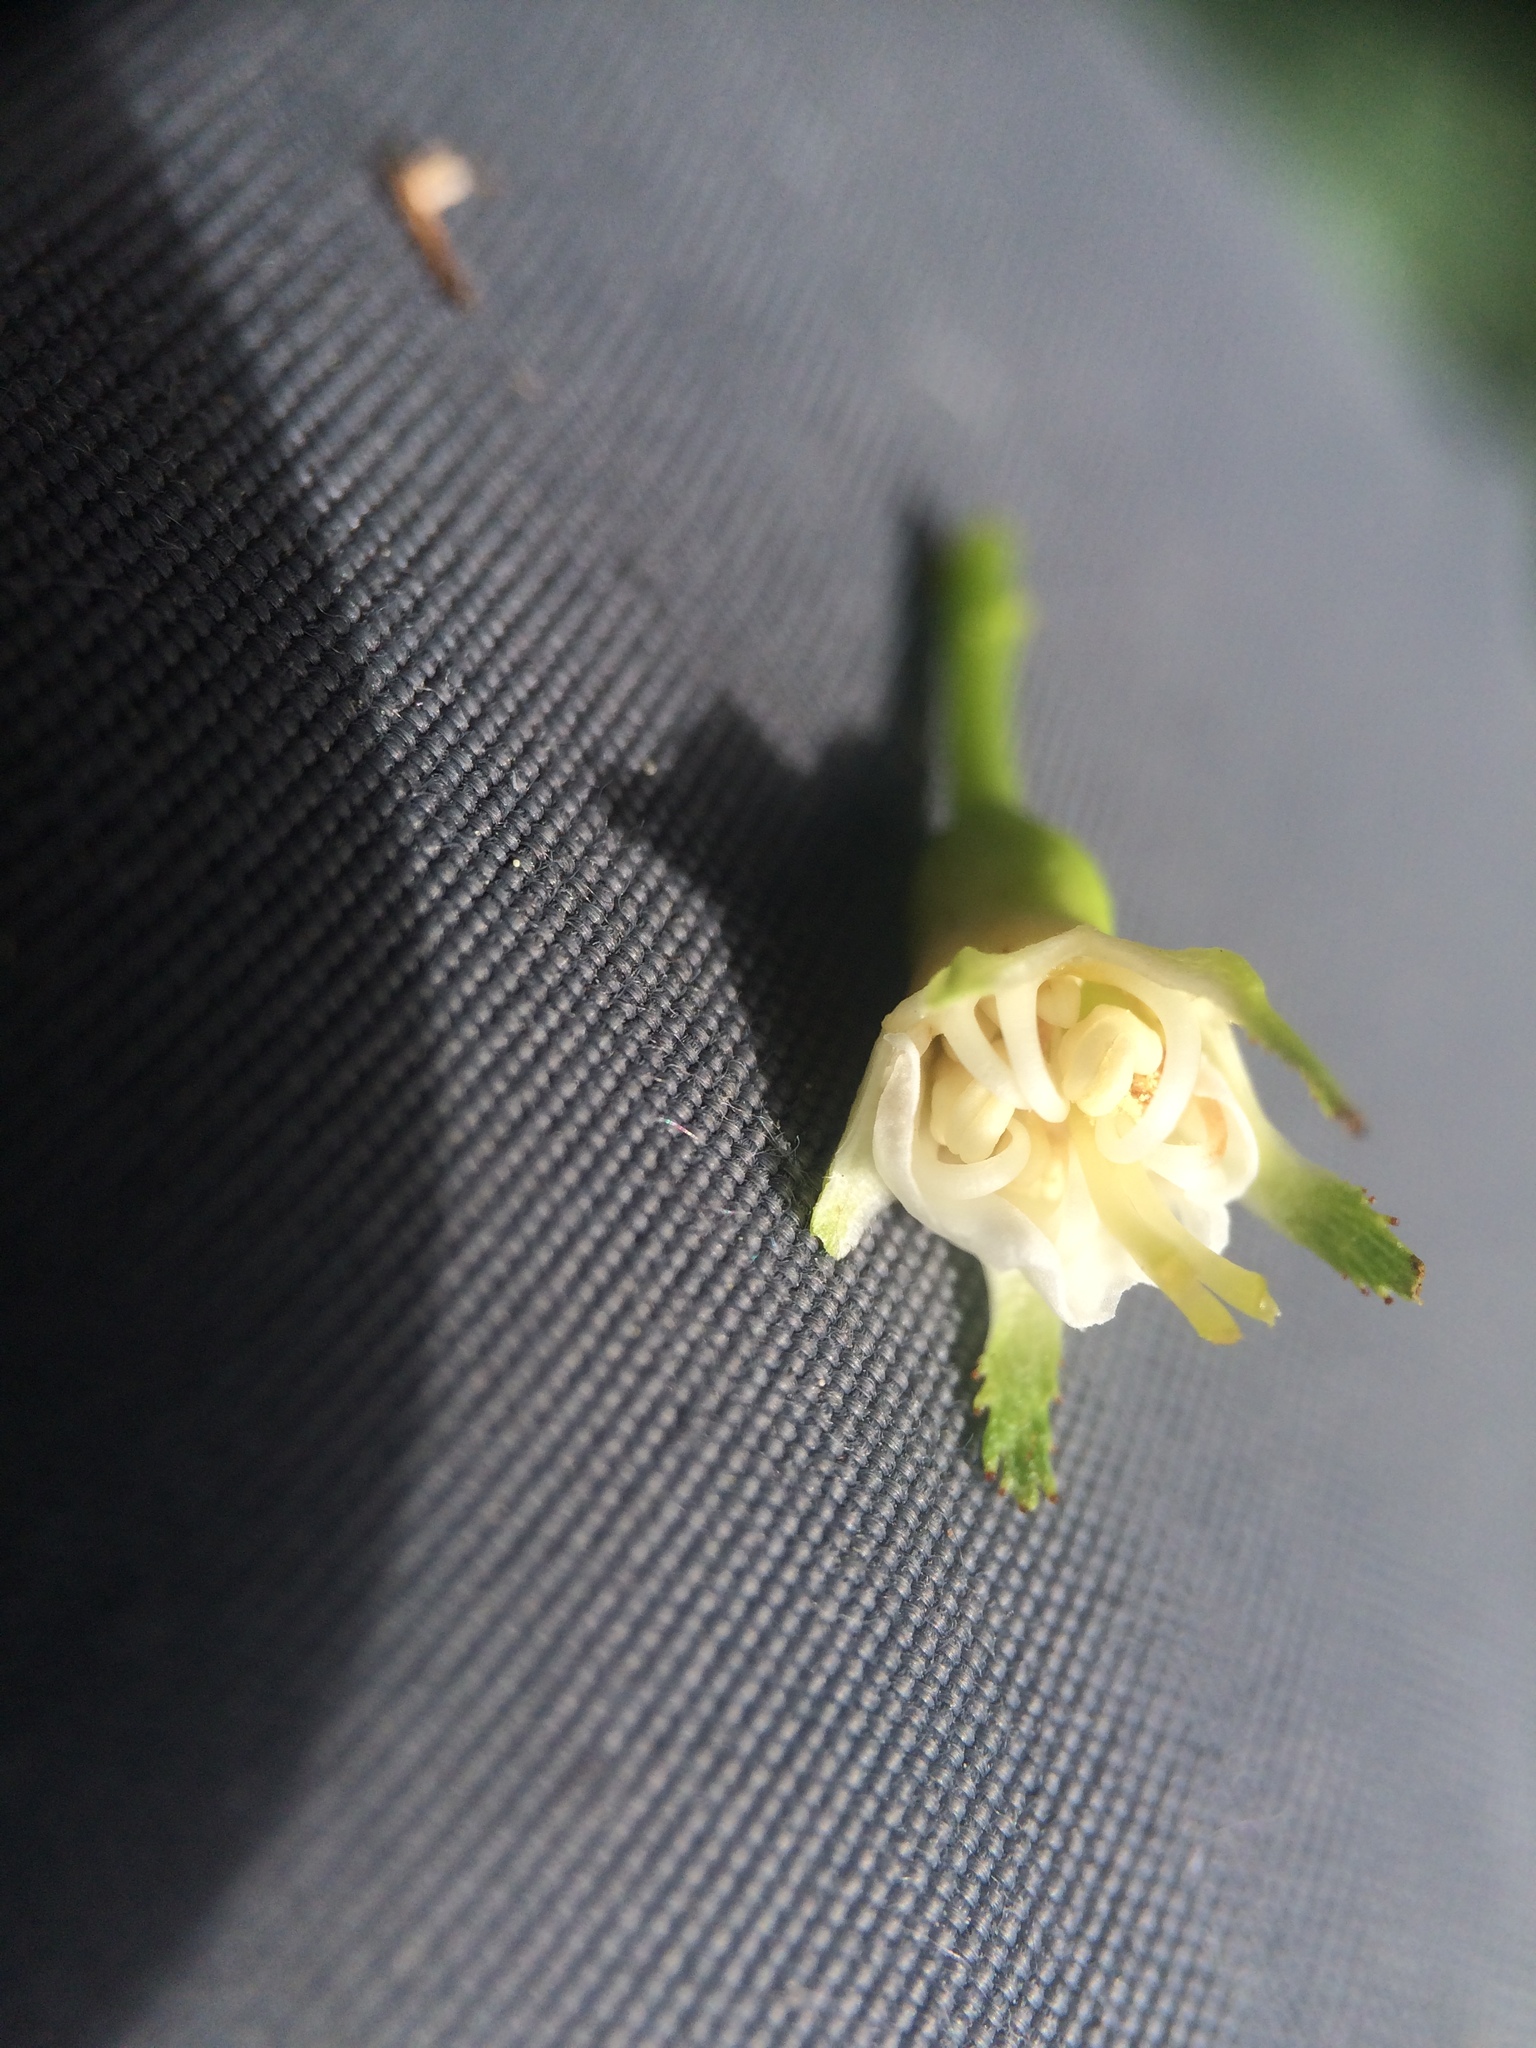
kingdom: Plantae
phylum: Tracheophyta
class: Magnoliopsida
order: Rosales
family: Rosaceae
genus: Crataegus
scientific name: Crataegus chrysocarpa
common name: Fire-berry hawthorn
